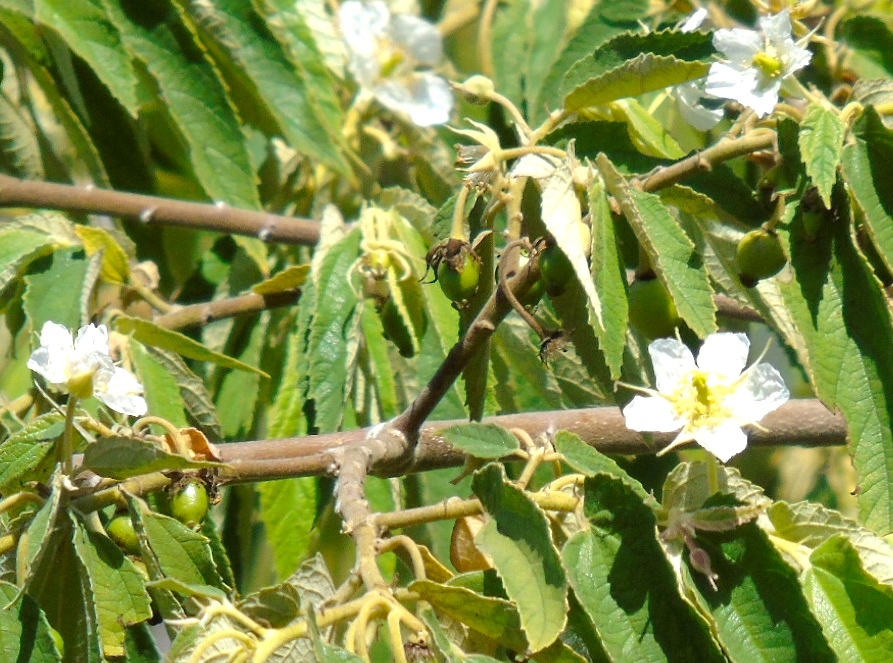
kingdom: Plantae
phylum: Tracheophyta
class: Magnoliopsida
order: Malvales
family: Muntingiaceae
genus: Muntingia
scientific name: Muntingia calabura
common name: Strawberrytree
